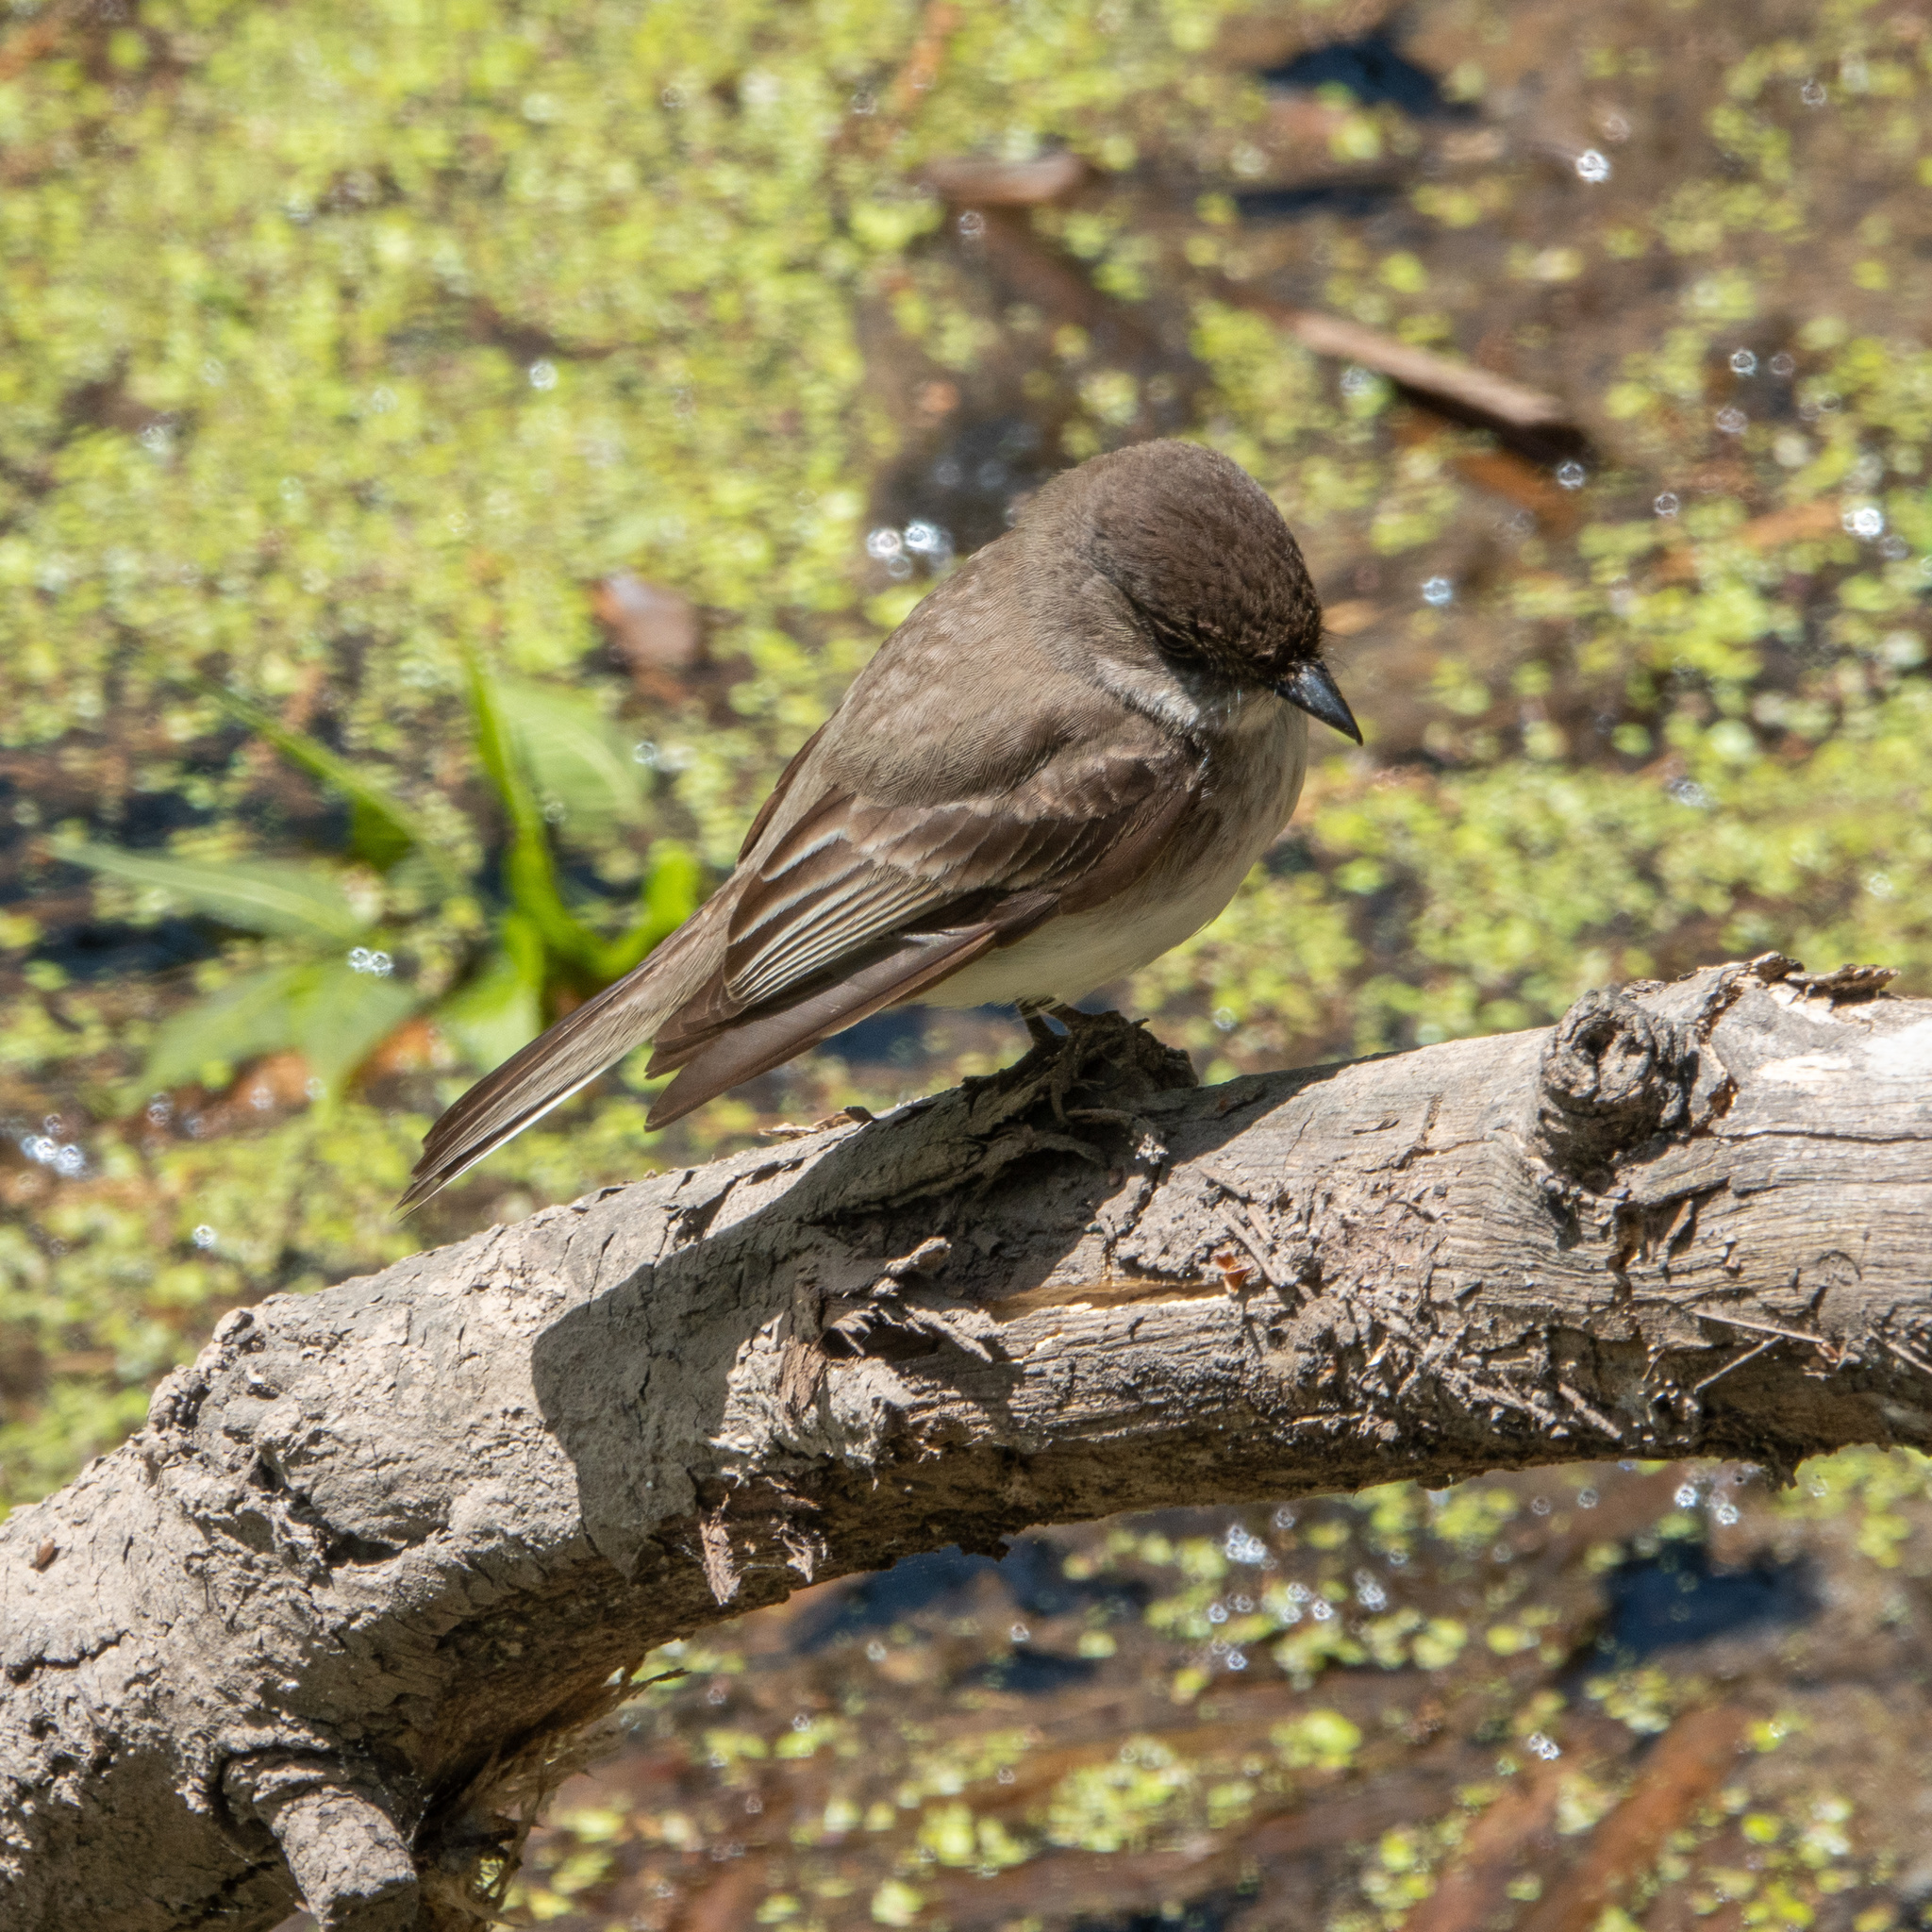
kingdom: Animalia
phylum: Chordata
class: Aves
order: Passeriformes
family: Tyrannidae
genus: Sayornis
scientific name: Sayornis phoebe
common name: Eastern phoebe
